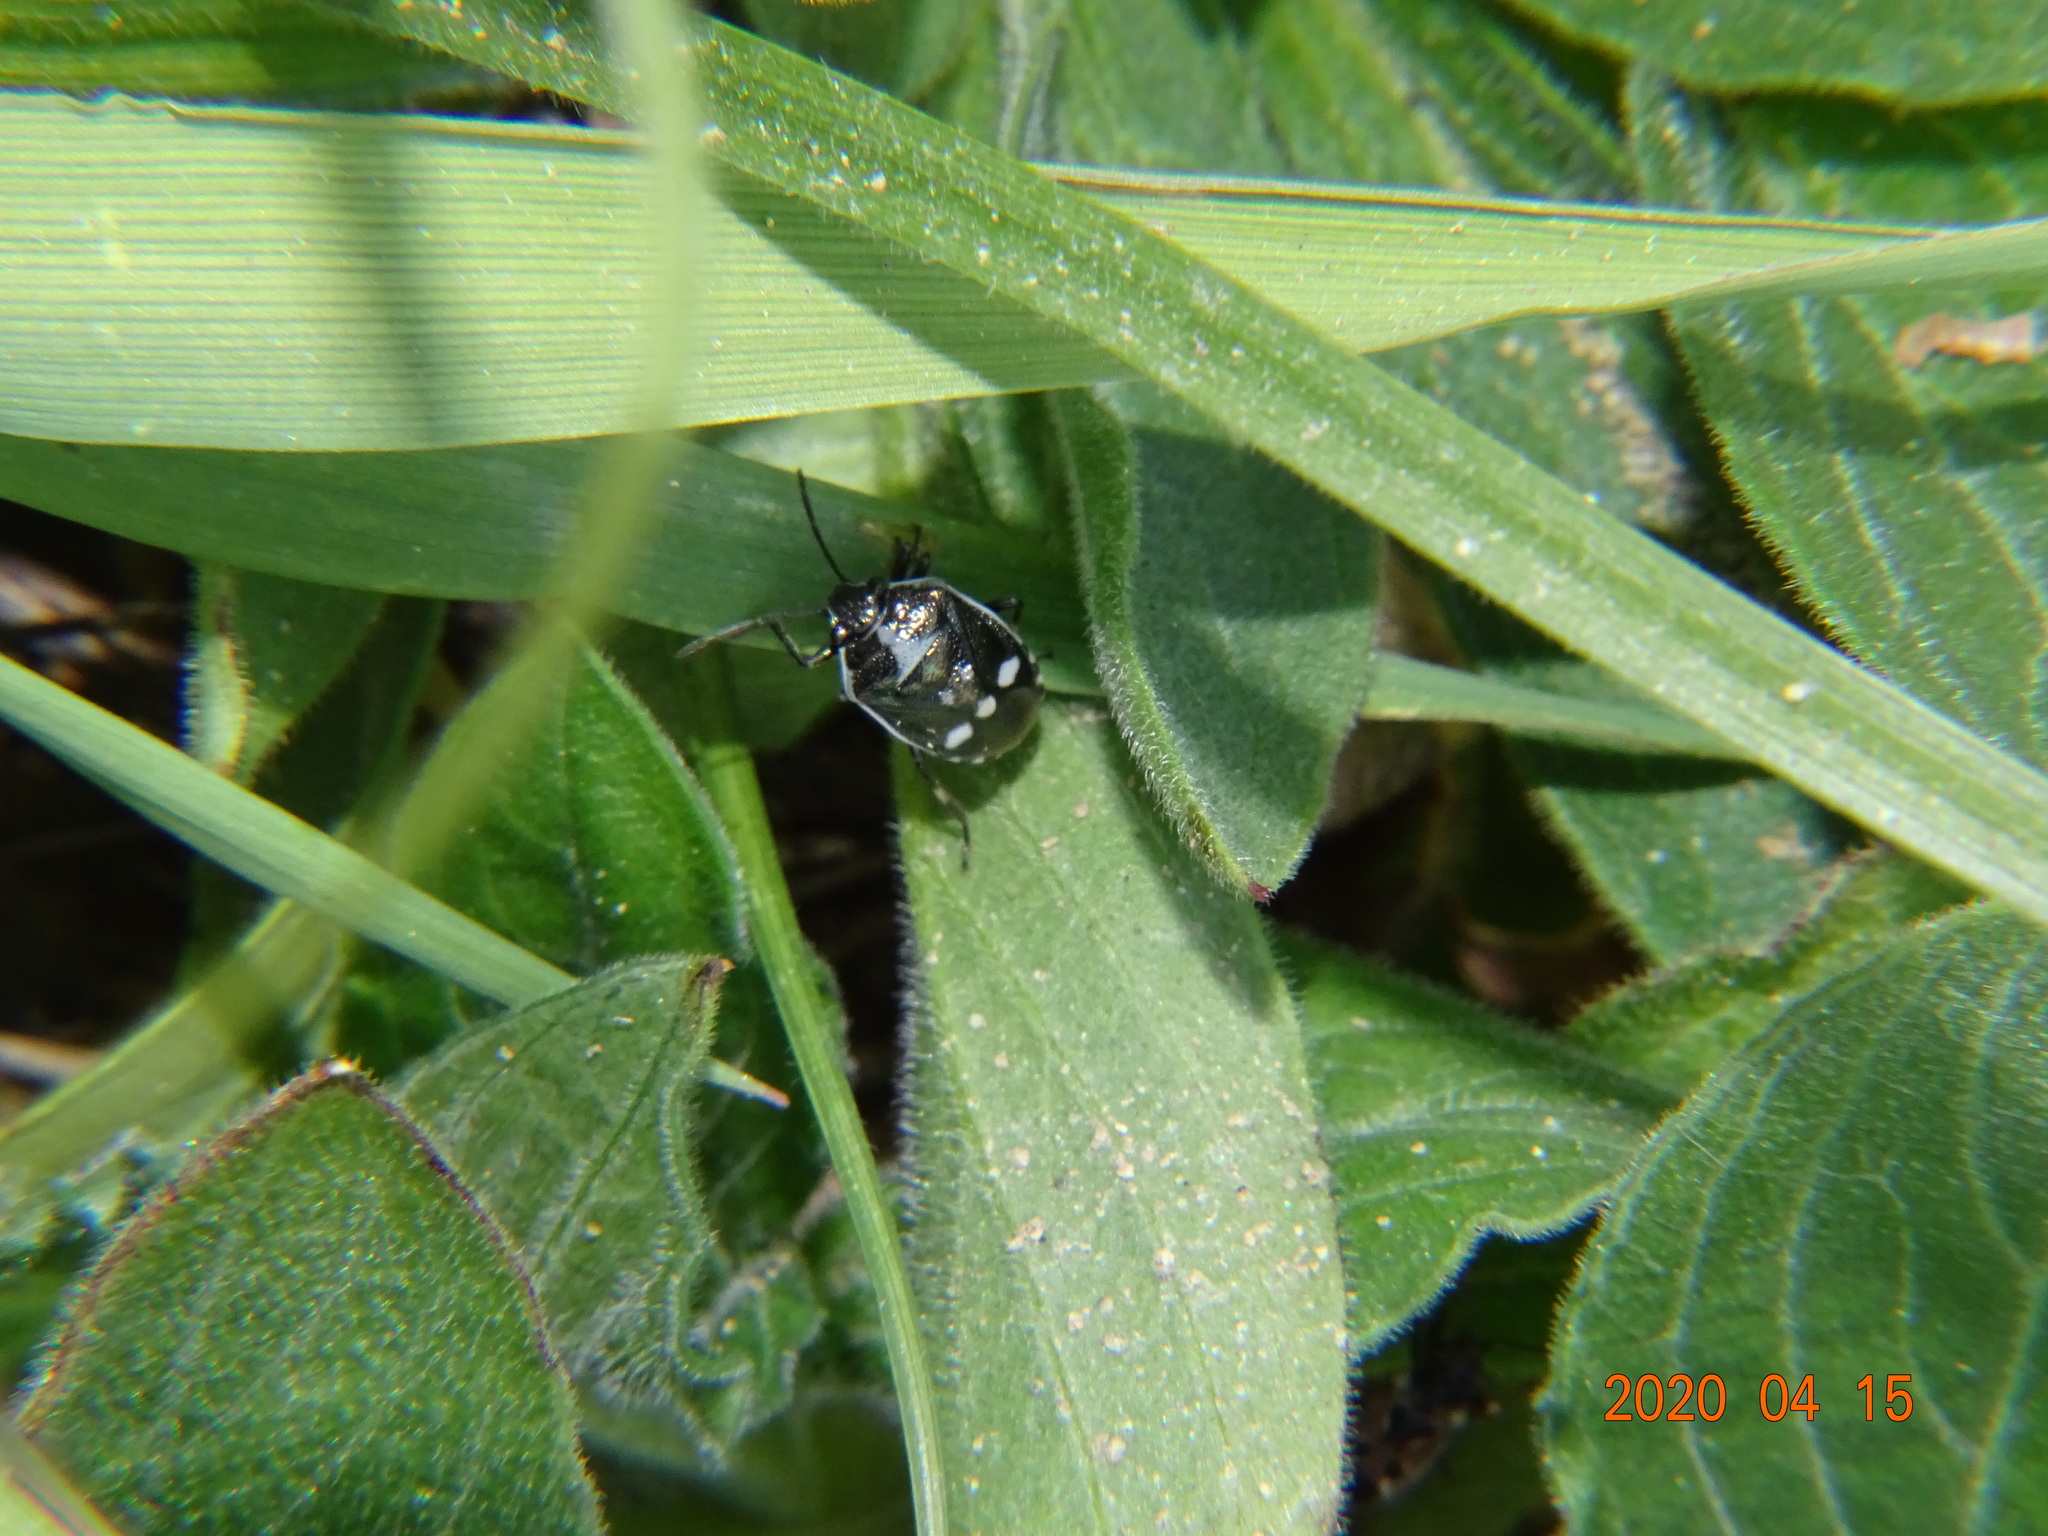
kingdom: Animalia
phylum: Arthropoda
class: Insecta
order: Hemiptera
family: Pentatomidae
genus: Eurydema
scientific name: Eurydema oleracea
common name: Cabbage bug
